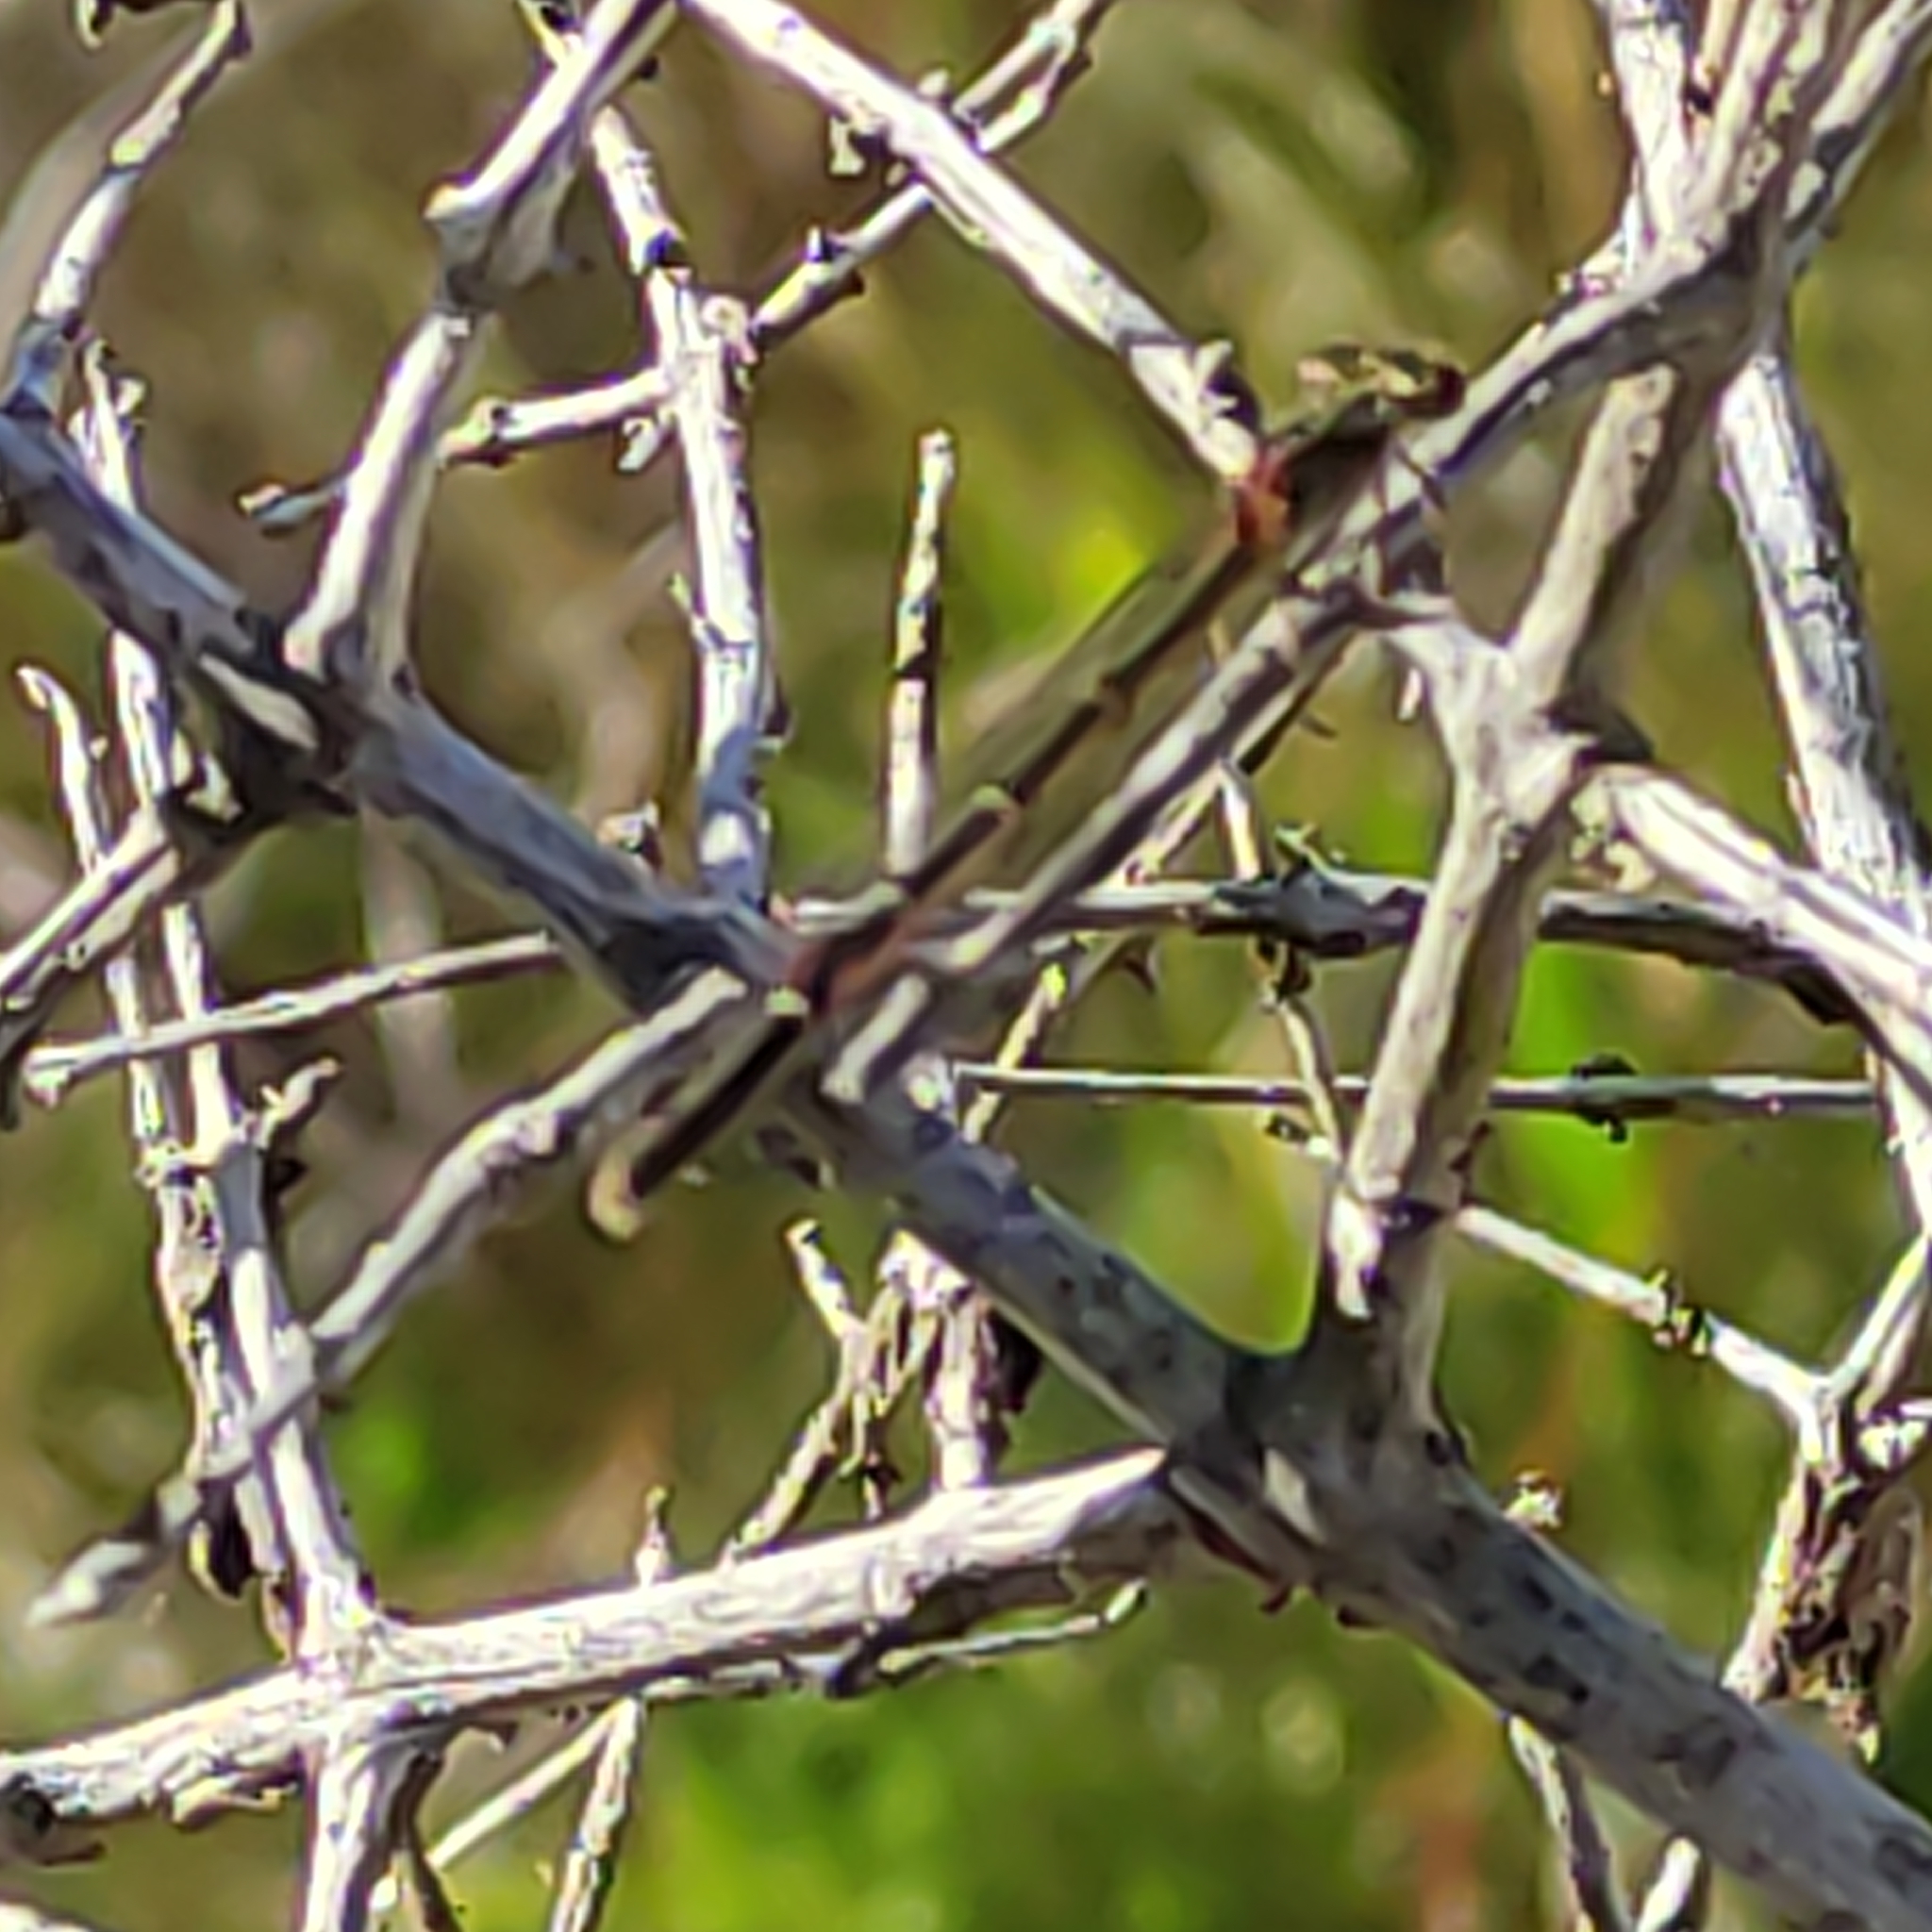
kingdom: Animalia
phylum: Arthropoda
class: Insecta
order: Odonata
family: Coenagrionidae
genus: Xanthocnemis
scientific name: Xanthocnemis zealandica
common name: Common redcoat damselfly
